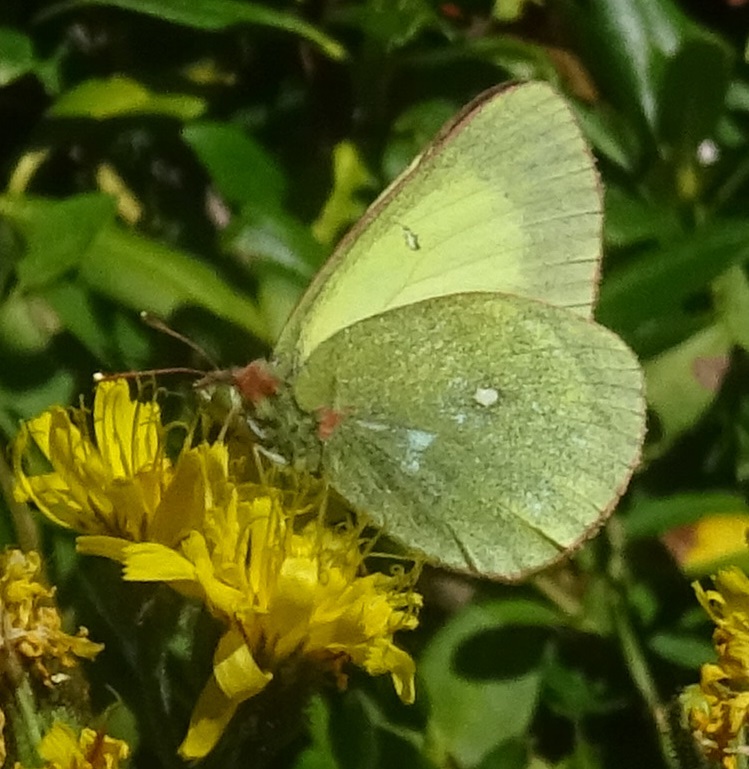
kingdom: Animalia
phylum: Arthropoda
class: Insecta
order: Lepidoptera
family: Pieridae
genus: Colias
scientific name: Colias palaeno
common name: Moorland clouded yellow
